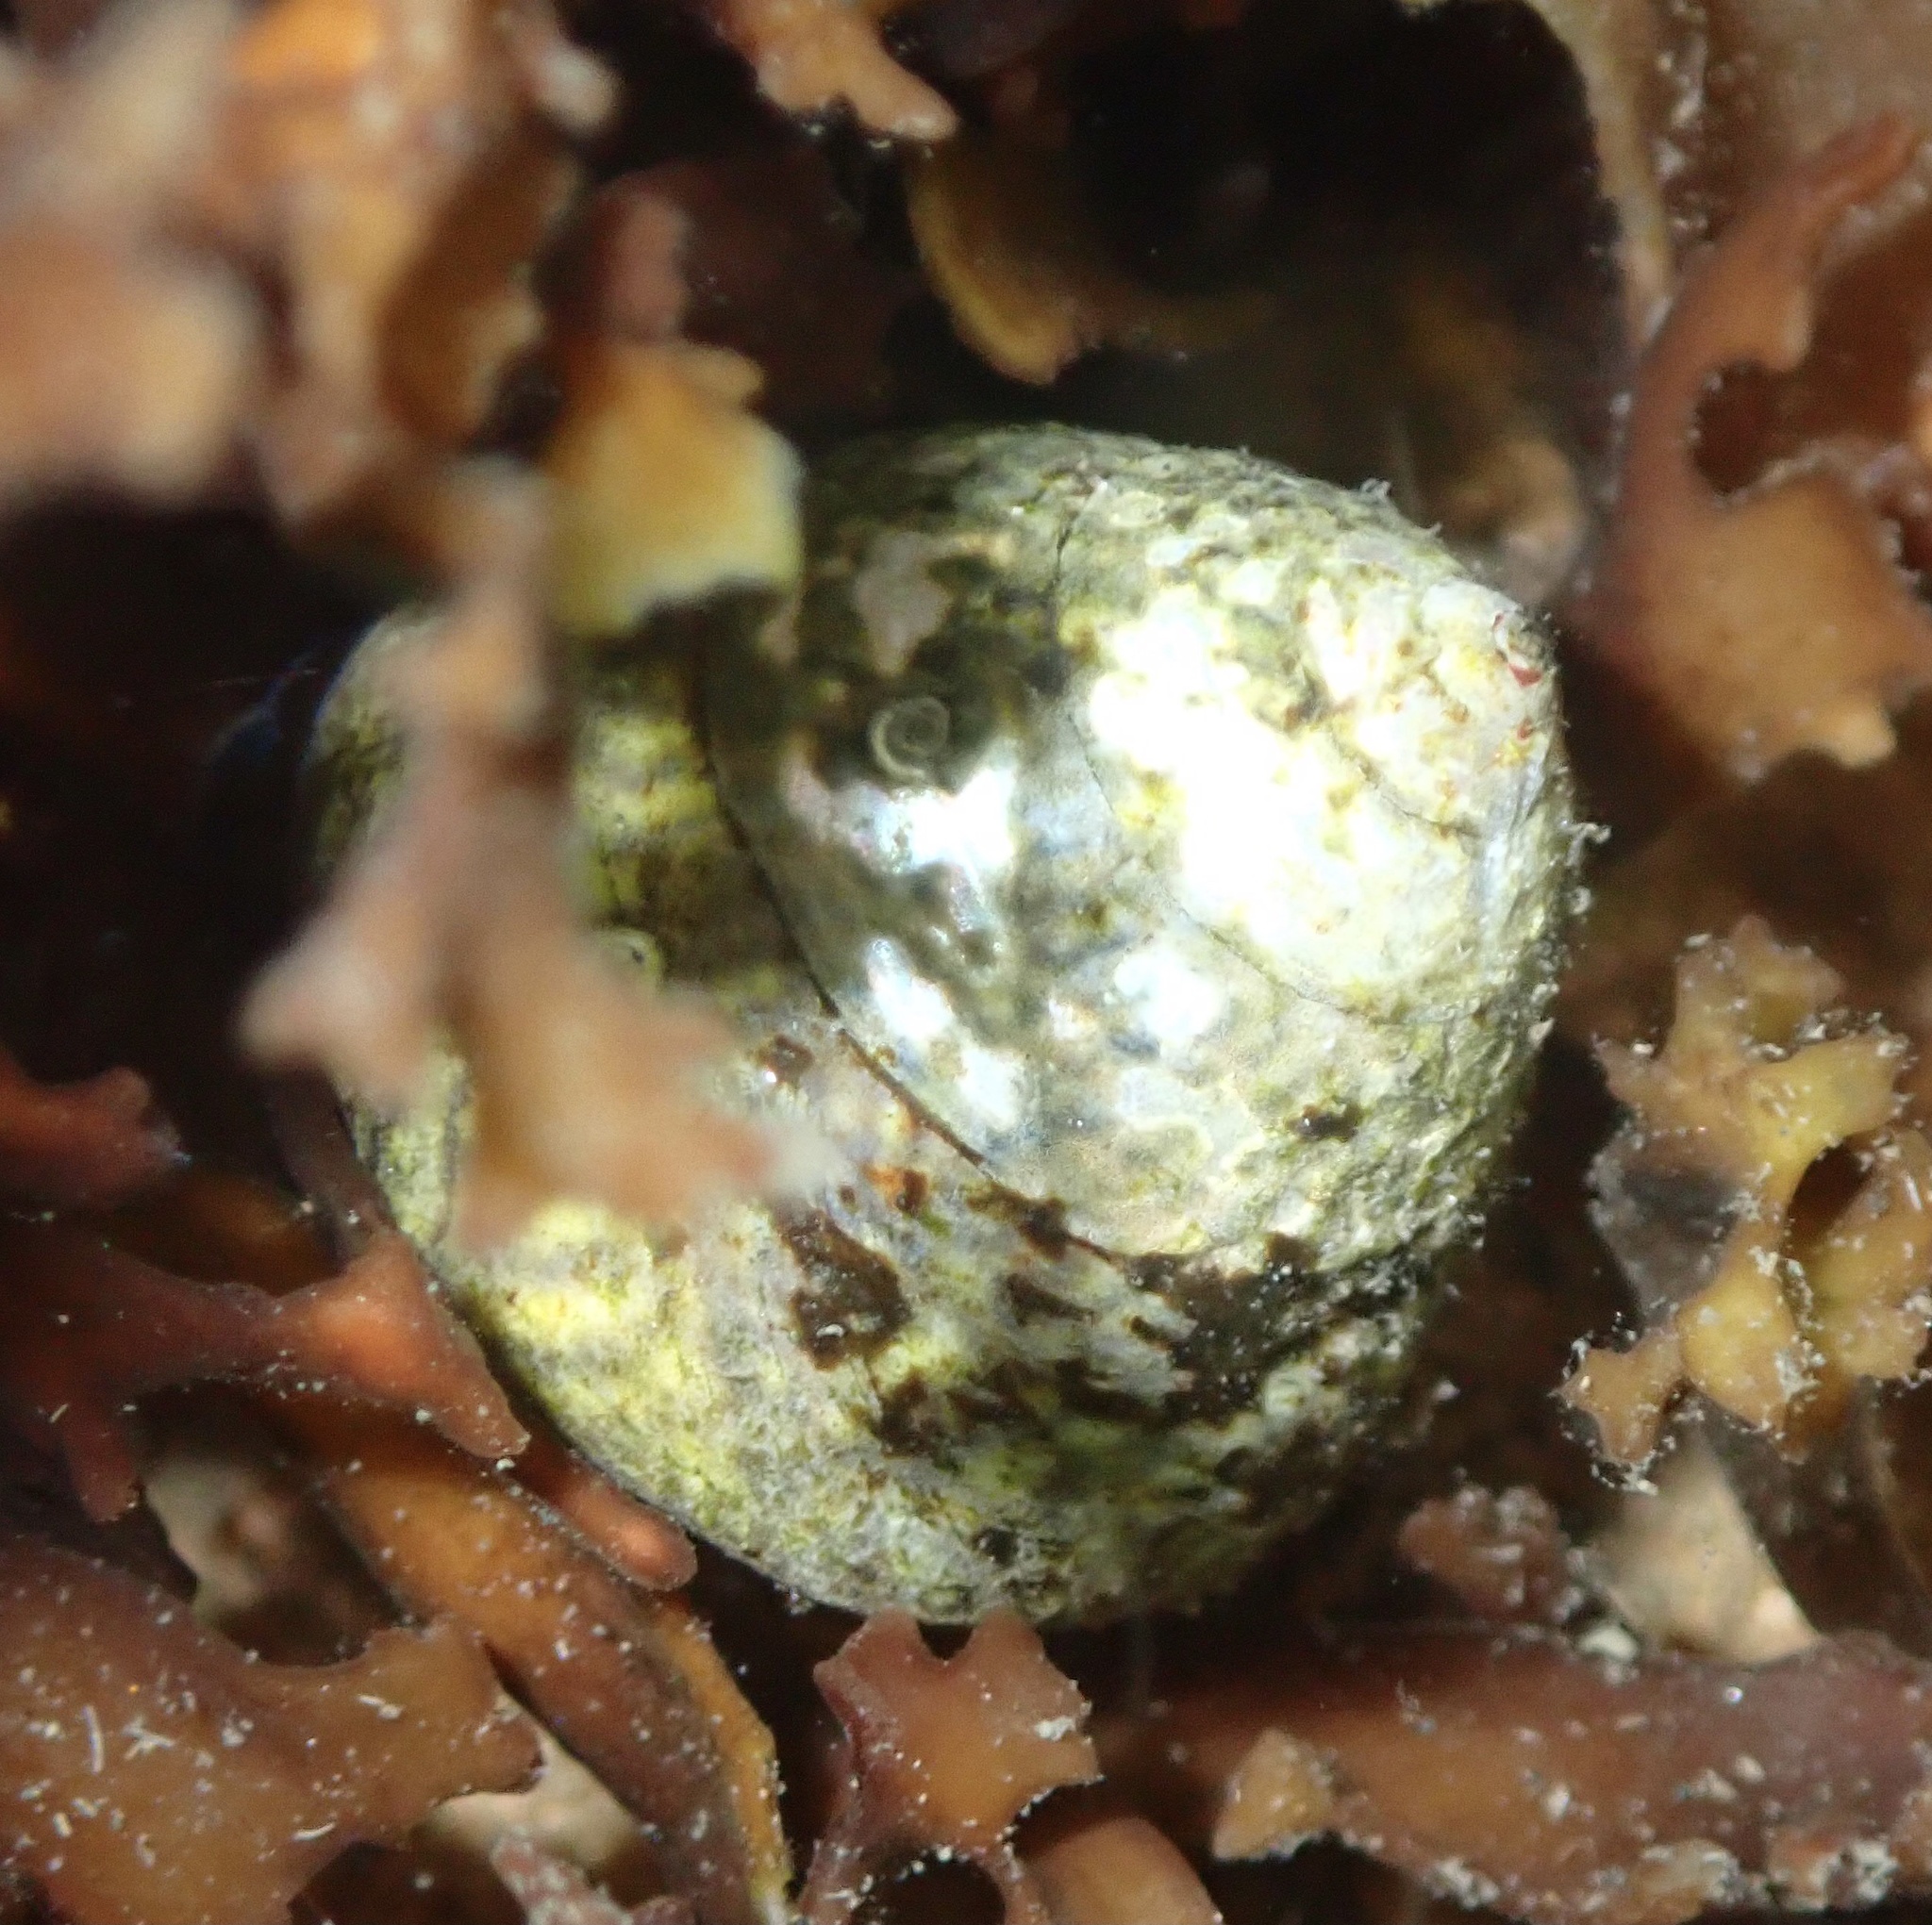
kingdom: Animalia
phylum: Mollusca
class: Gastropoda
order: Trochida
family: Trochidae
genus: Steromphala
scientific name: Steromphala cineraria
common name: Grey top shell
